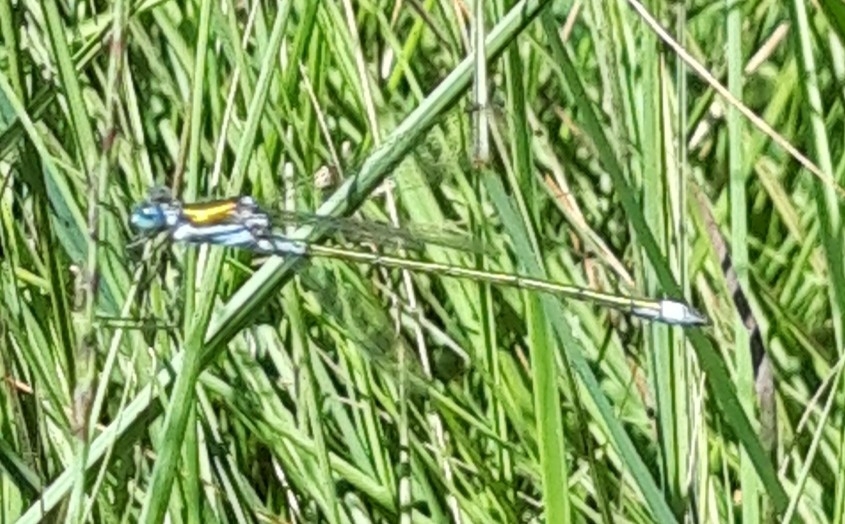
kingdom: Animalia
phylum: Arthropoda
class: Insecta
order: Odonata
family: Lestidae
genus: Lestes
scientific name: Lestes sponsa
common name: Common spreadwing
